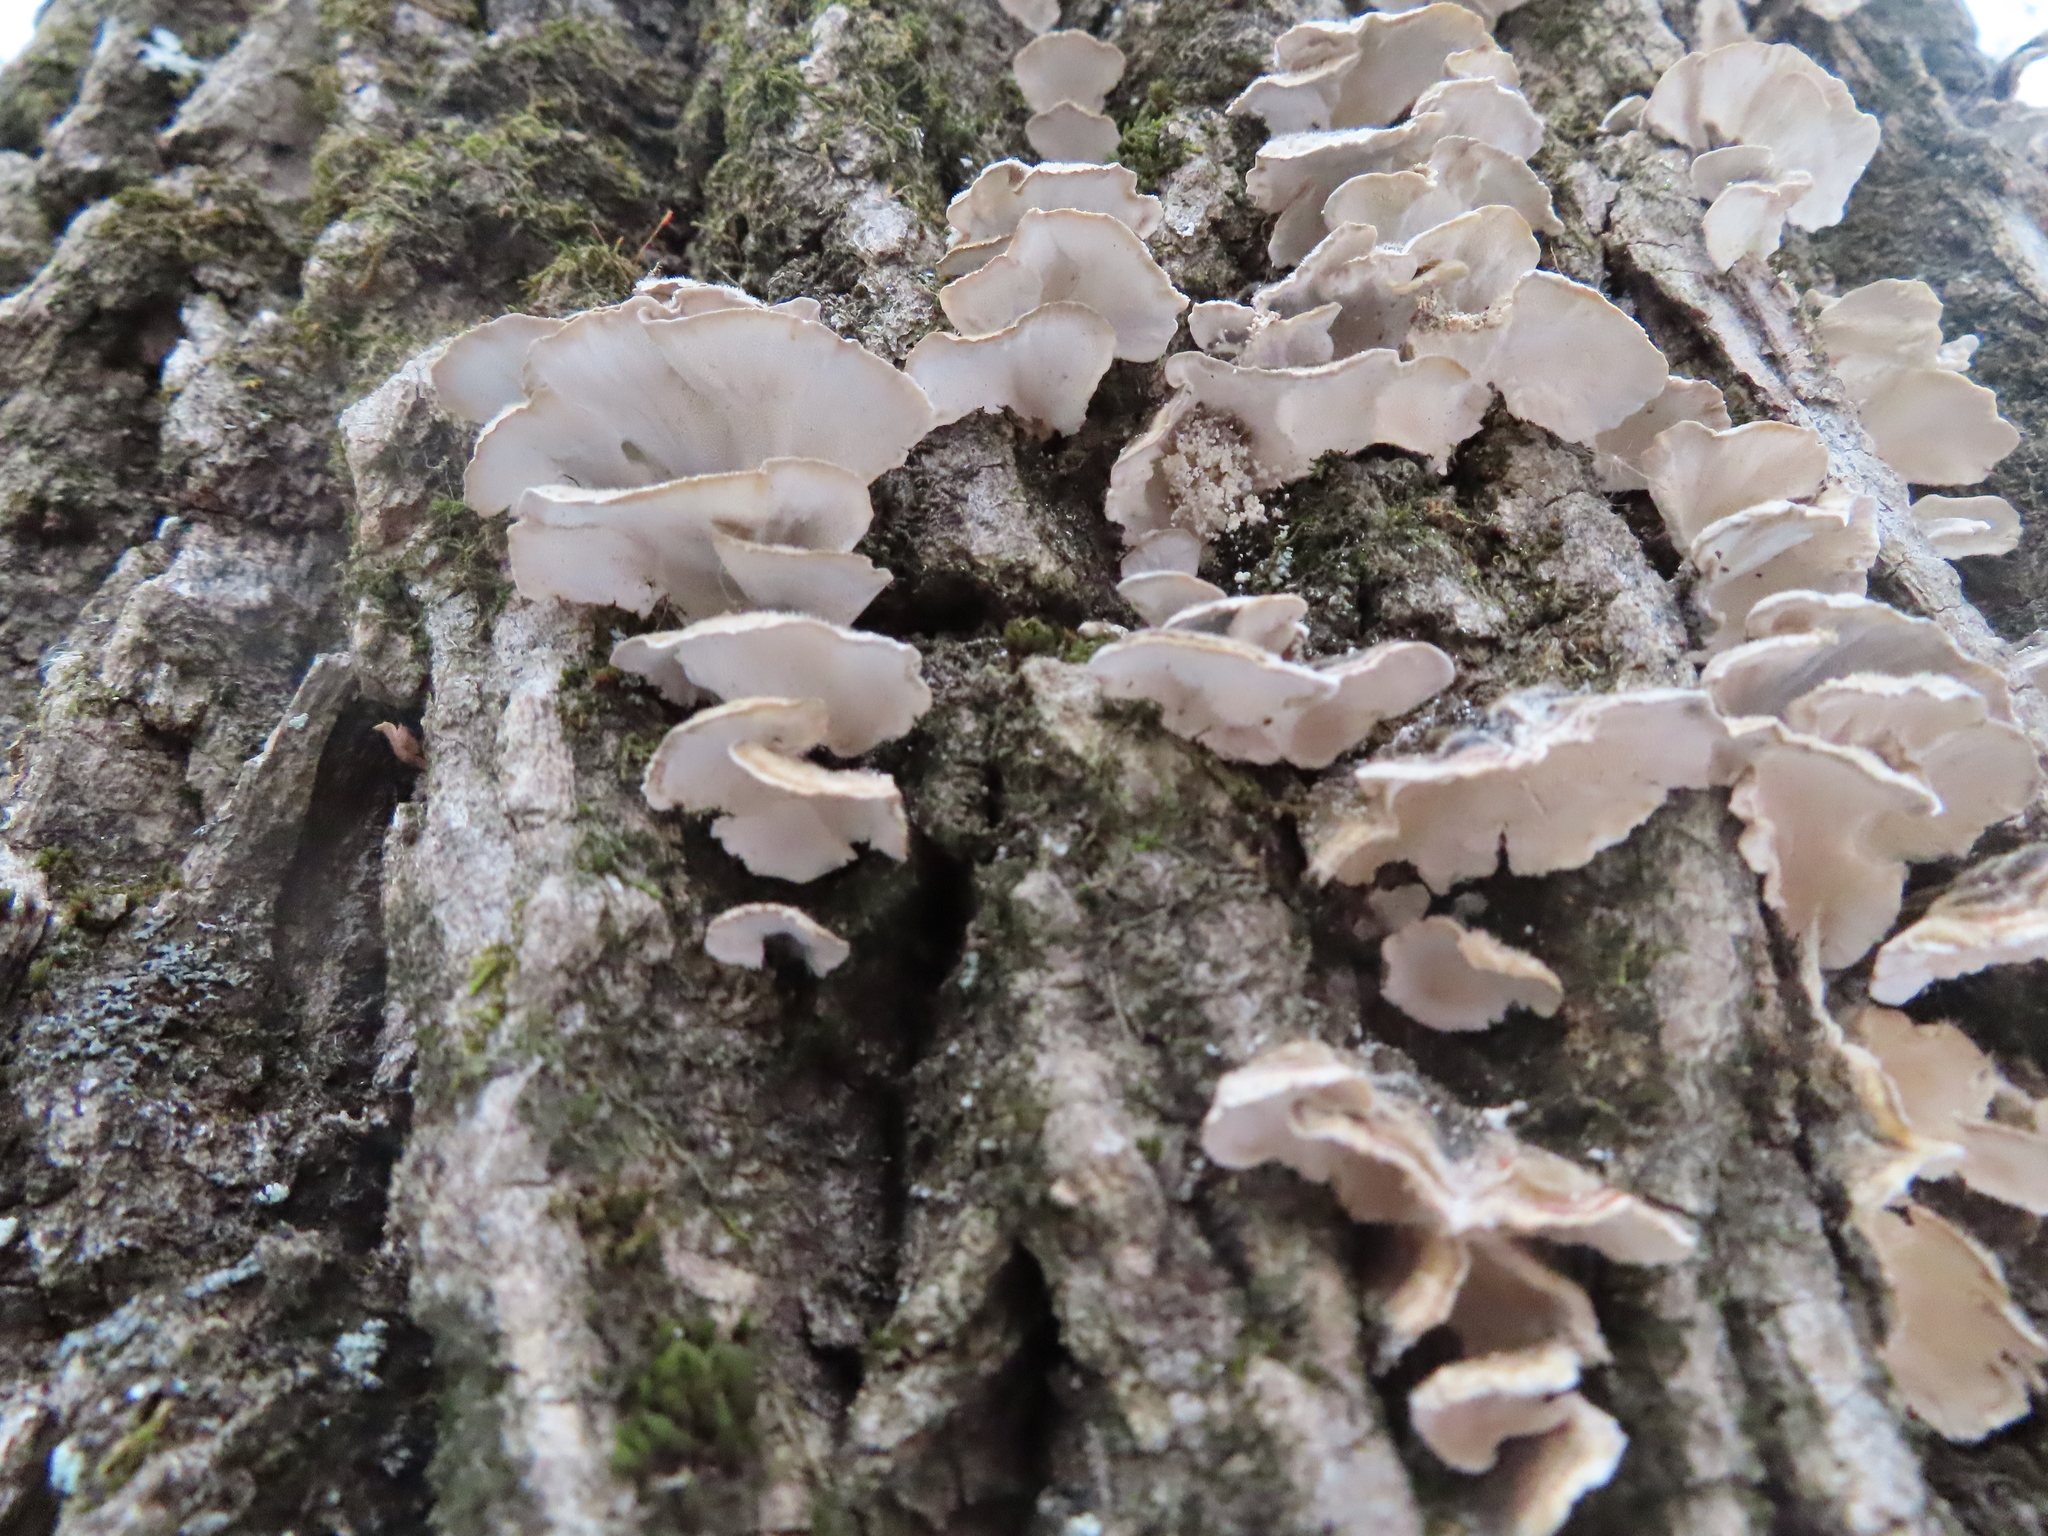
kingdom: Fungi
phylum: Basidiomycota
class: Agaricomycetes
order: Polyporales
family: Polyporaceae
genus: Trametes
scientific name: Trametes versicolor
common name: Turkeytail
